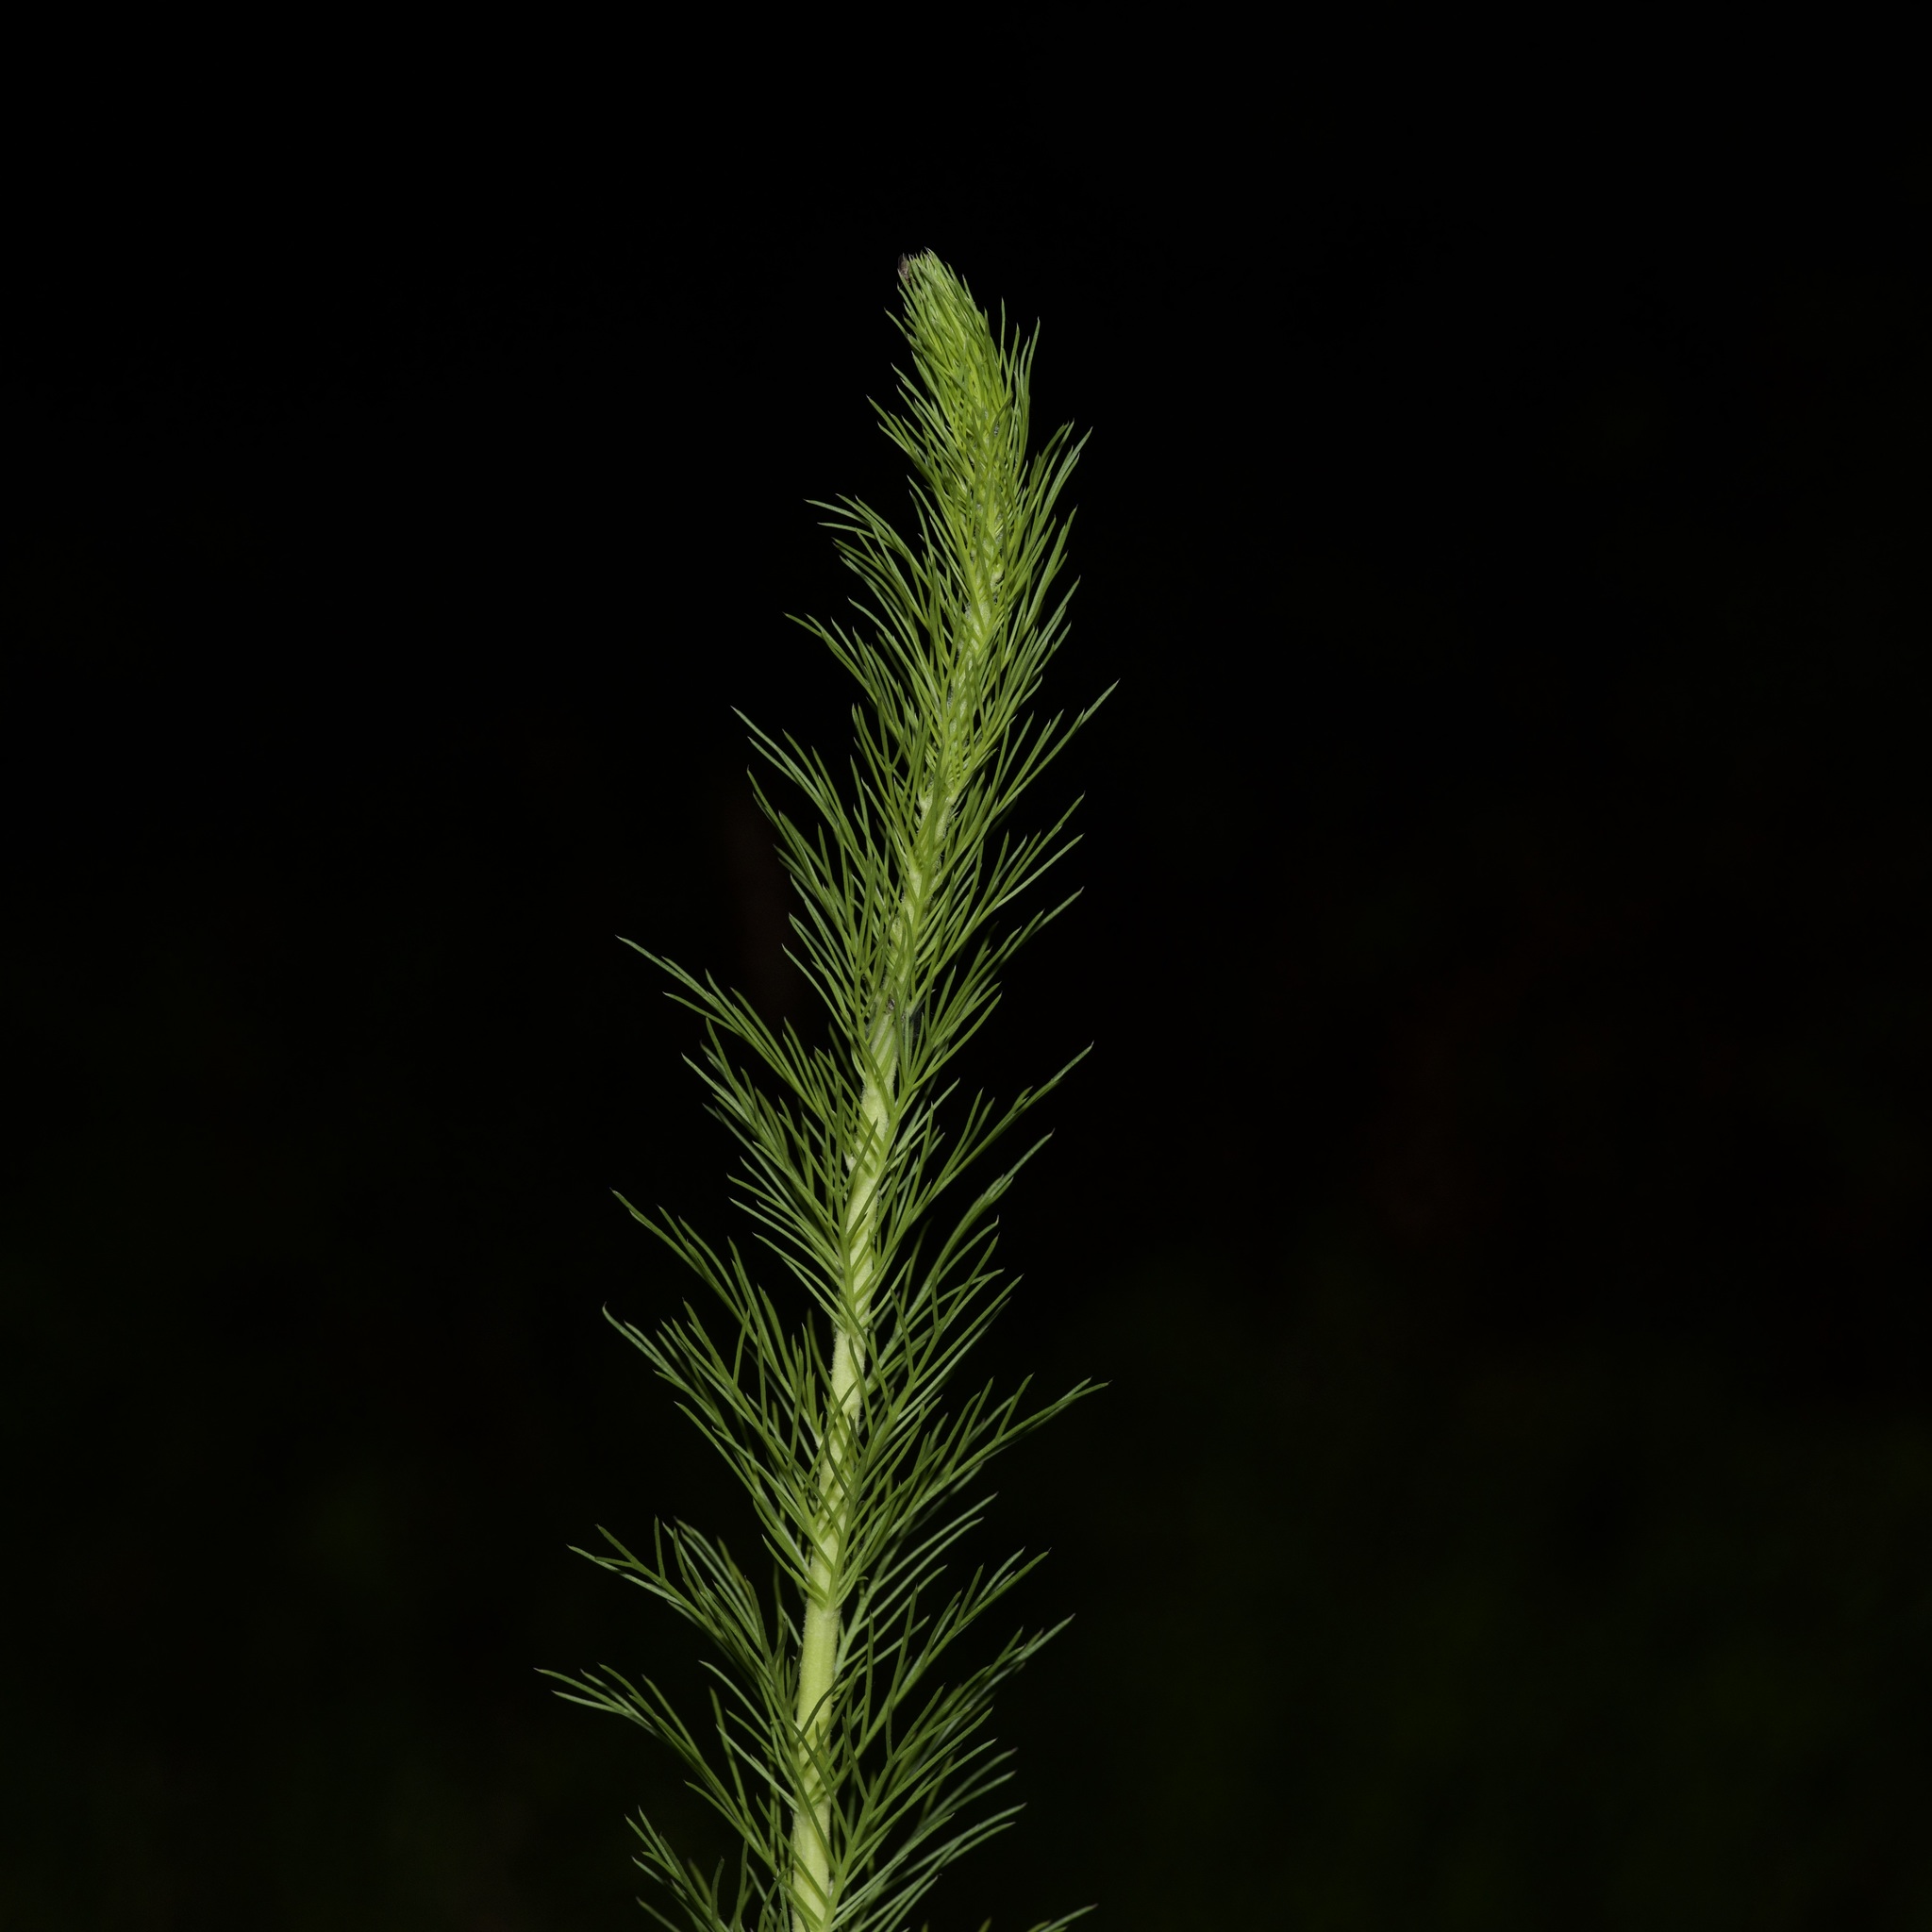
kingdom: Plantae
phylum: Tracheophyta
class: Magnoliopsida
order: Ericales
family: Polemoniaceae
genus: Ipomopsis
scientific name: Ipomopsis rubra
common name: Skyrocket
